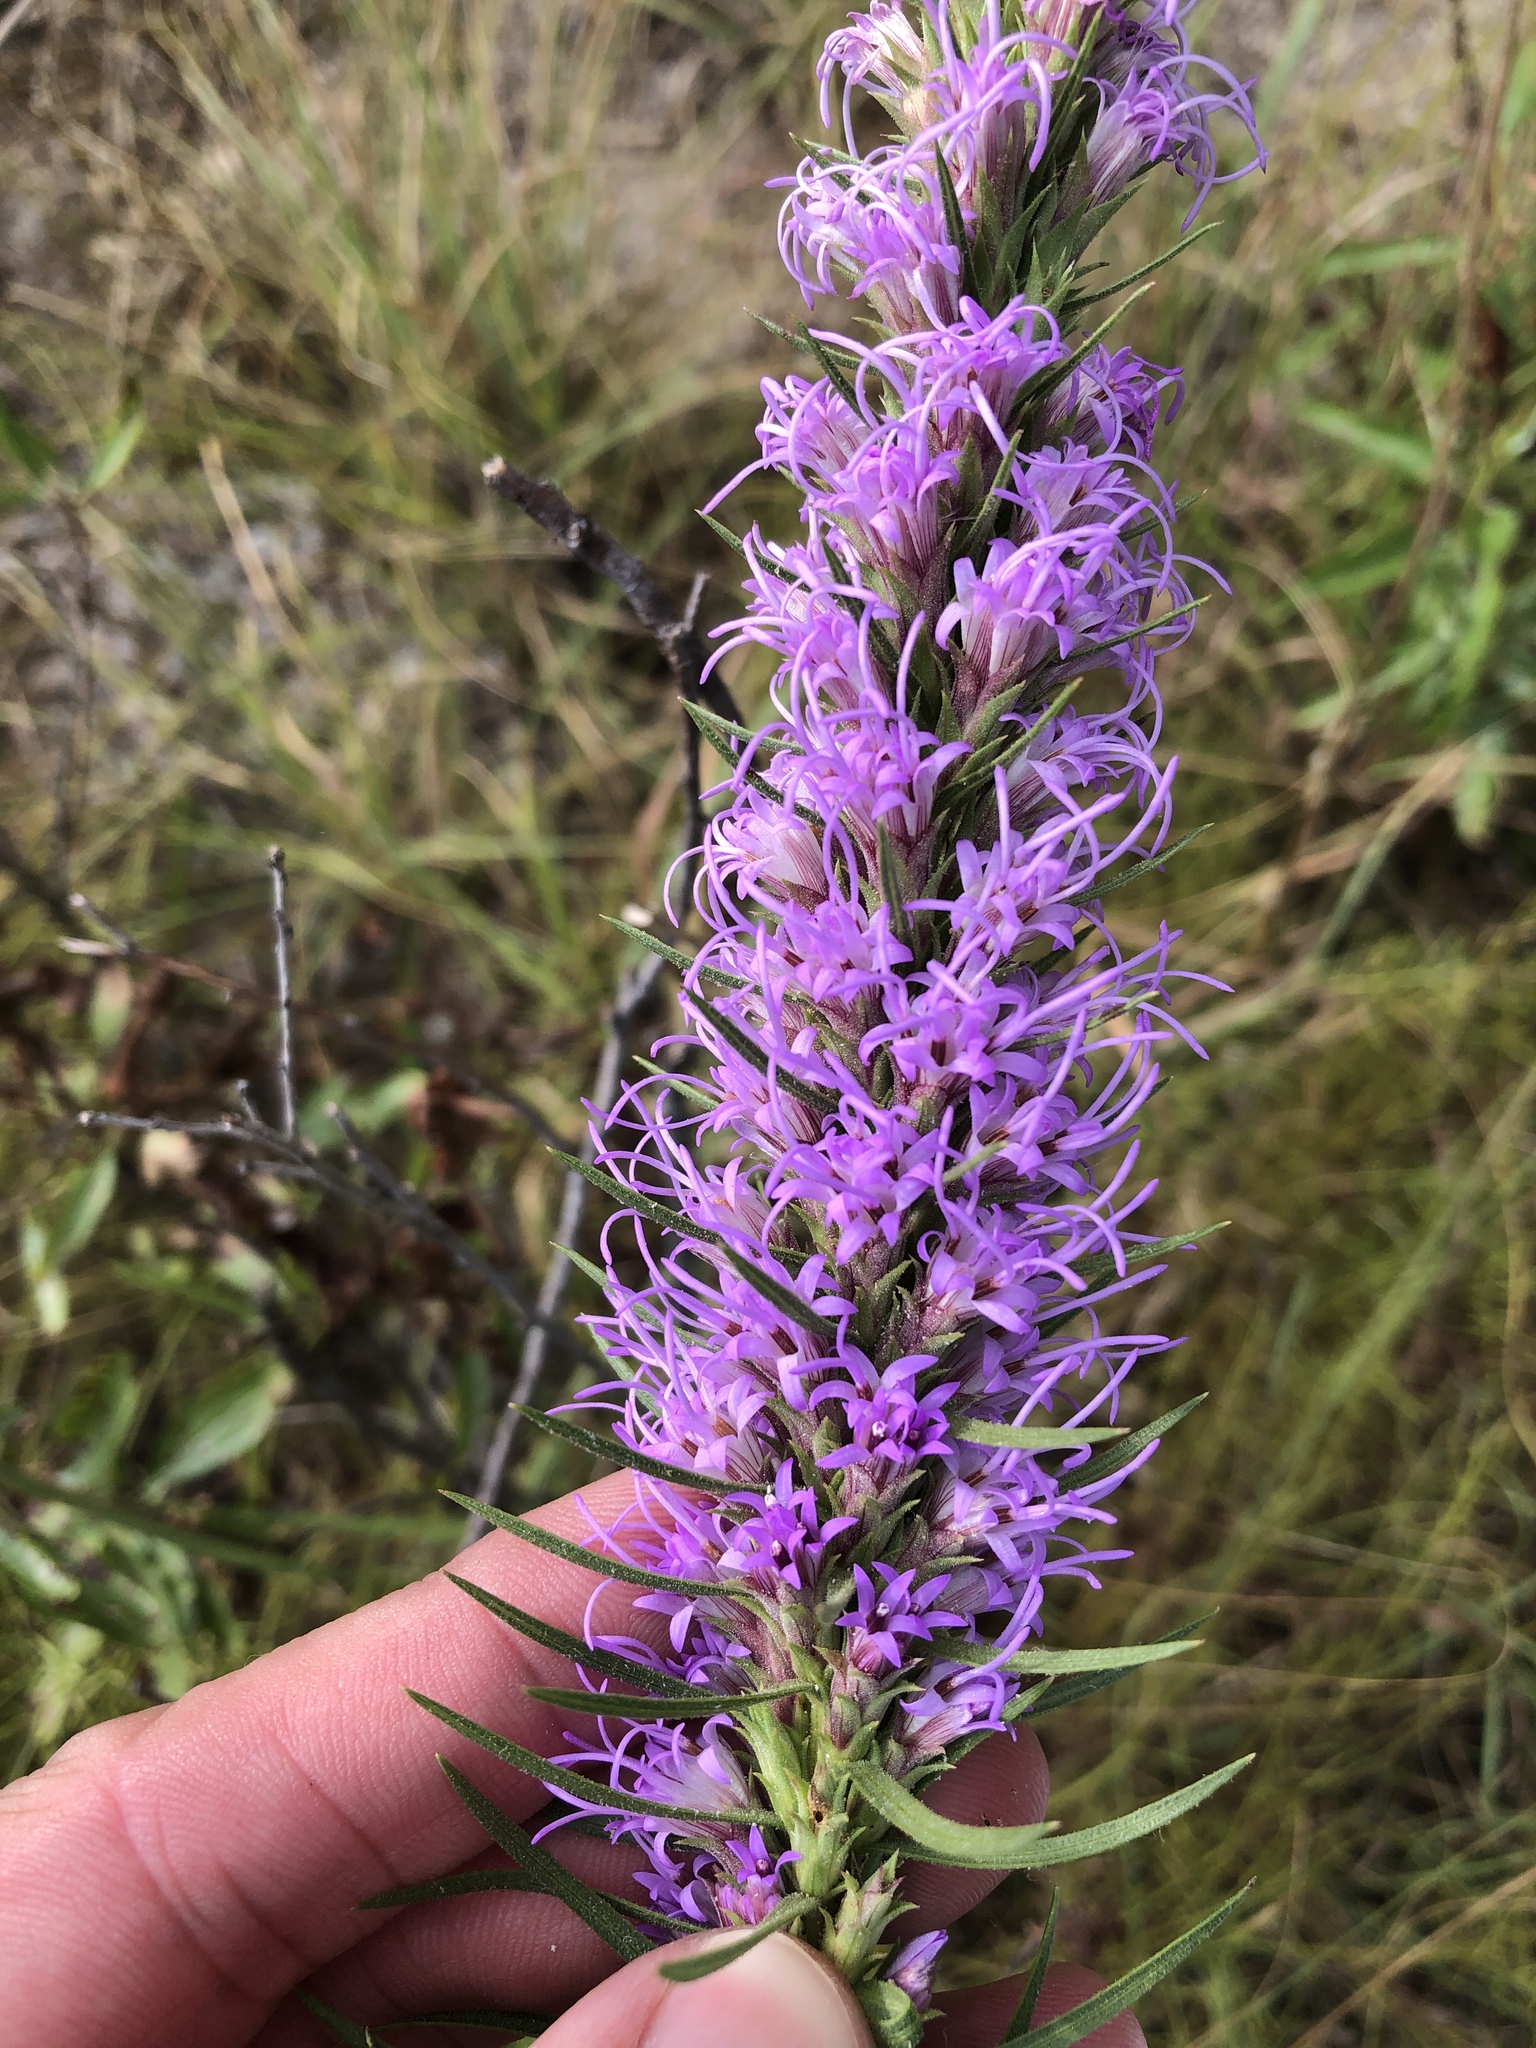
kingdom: Plantae
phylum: Tracheophyta
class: Magnoliopsida
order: Asterales
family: Asteraceae
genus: Liatris
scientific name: Liatris glandulosa
